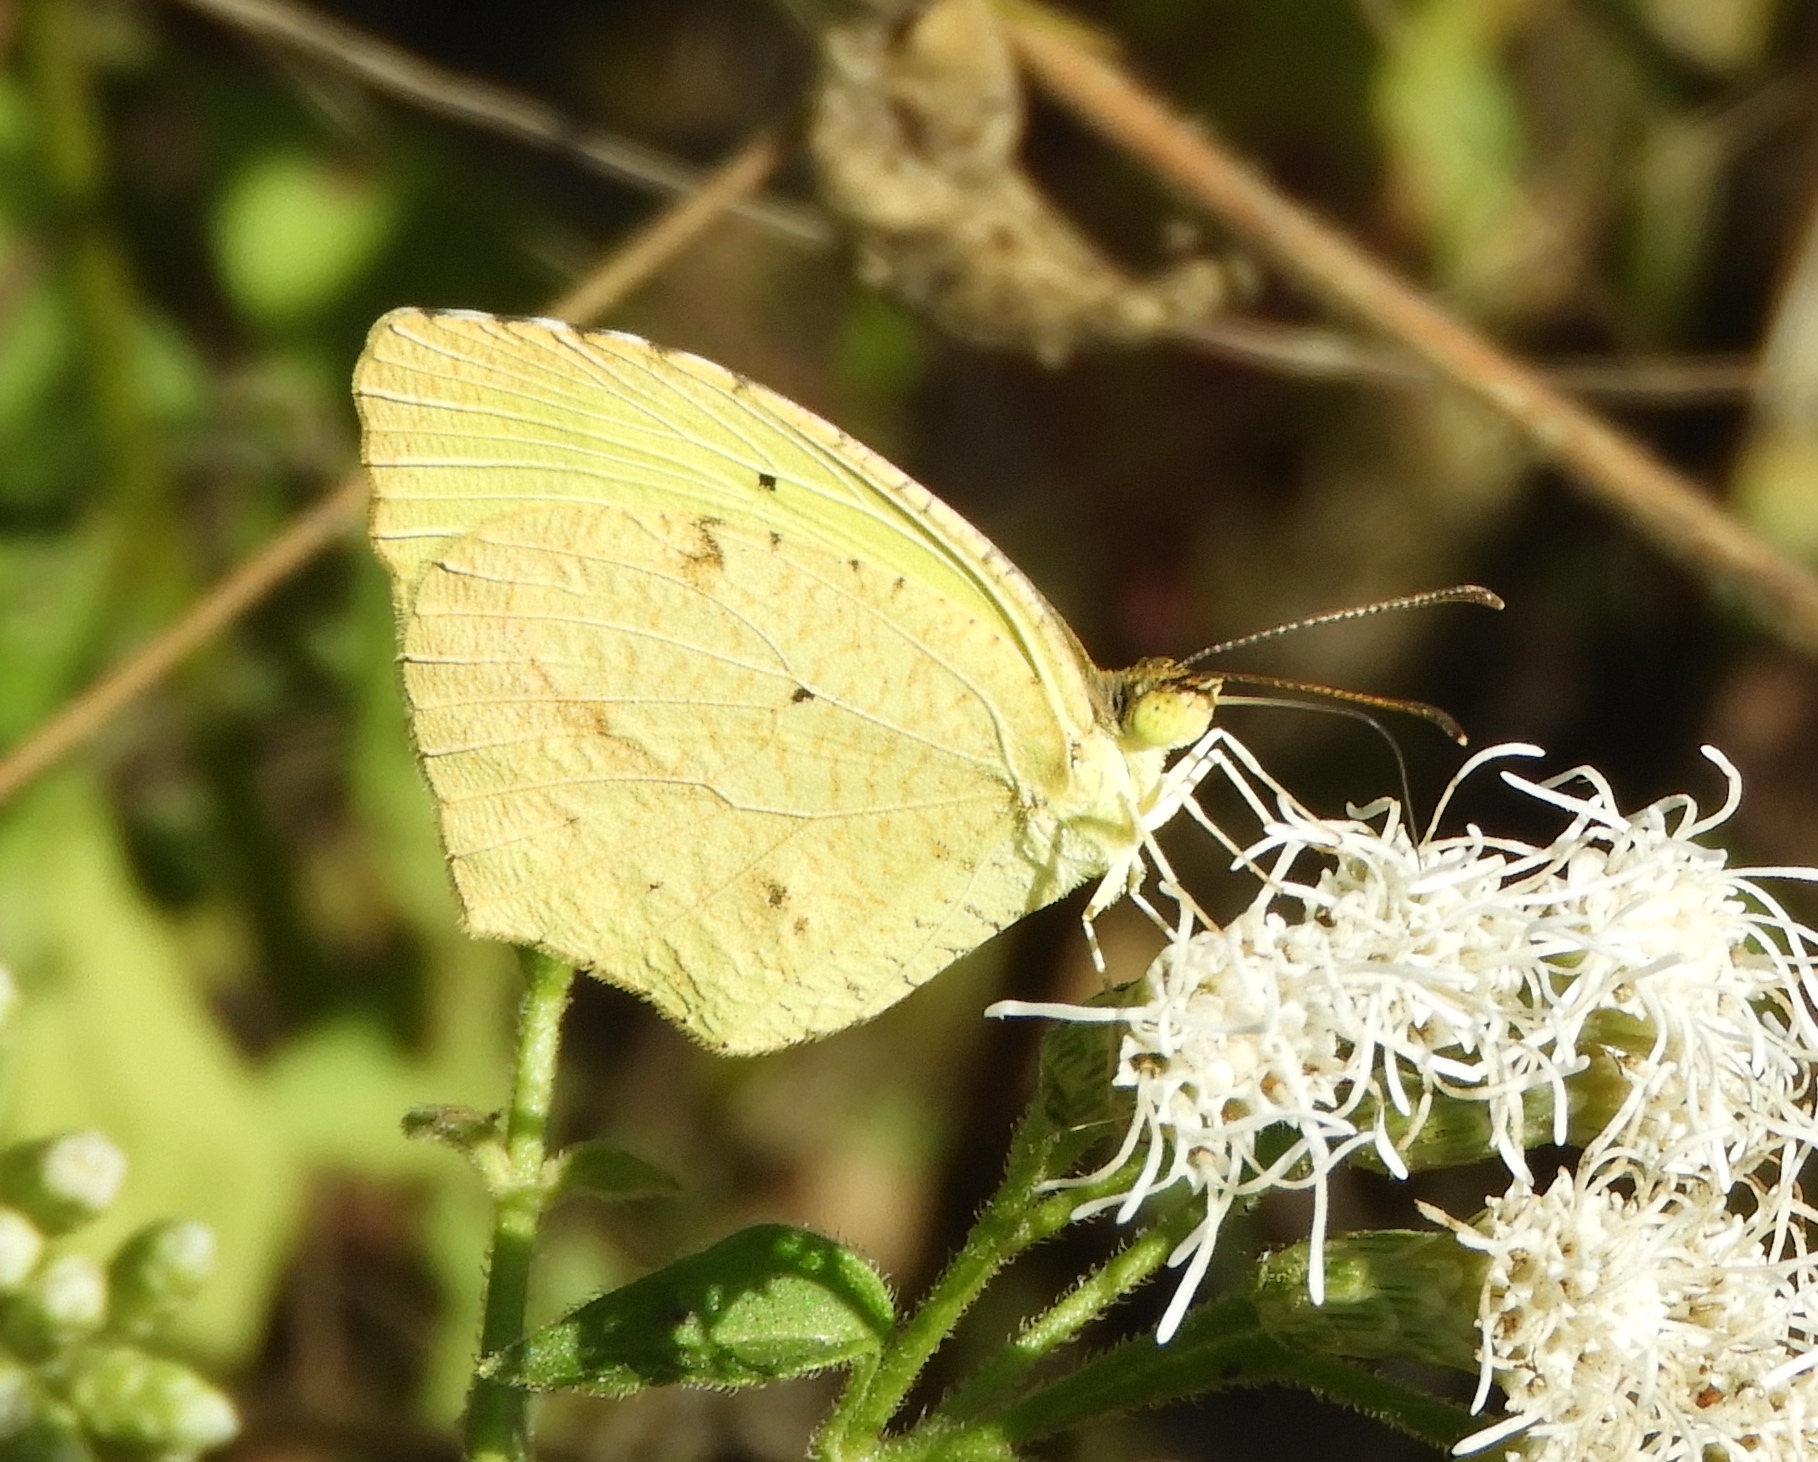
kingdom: Animalia
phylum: Arthropoda
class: Insecta
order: Lepidoptera
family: Pieridae
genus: Abaeis
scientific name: Abaeis boisduvaliana
